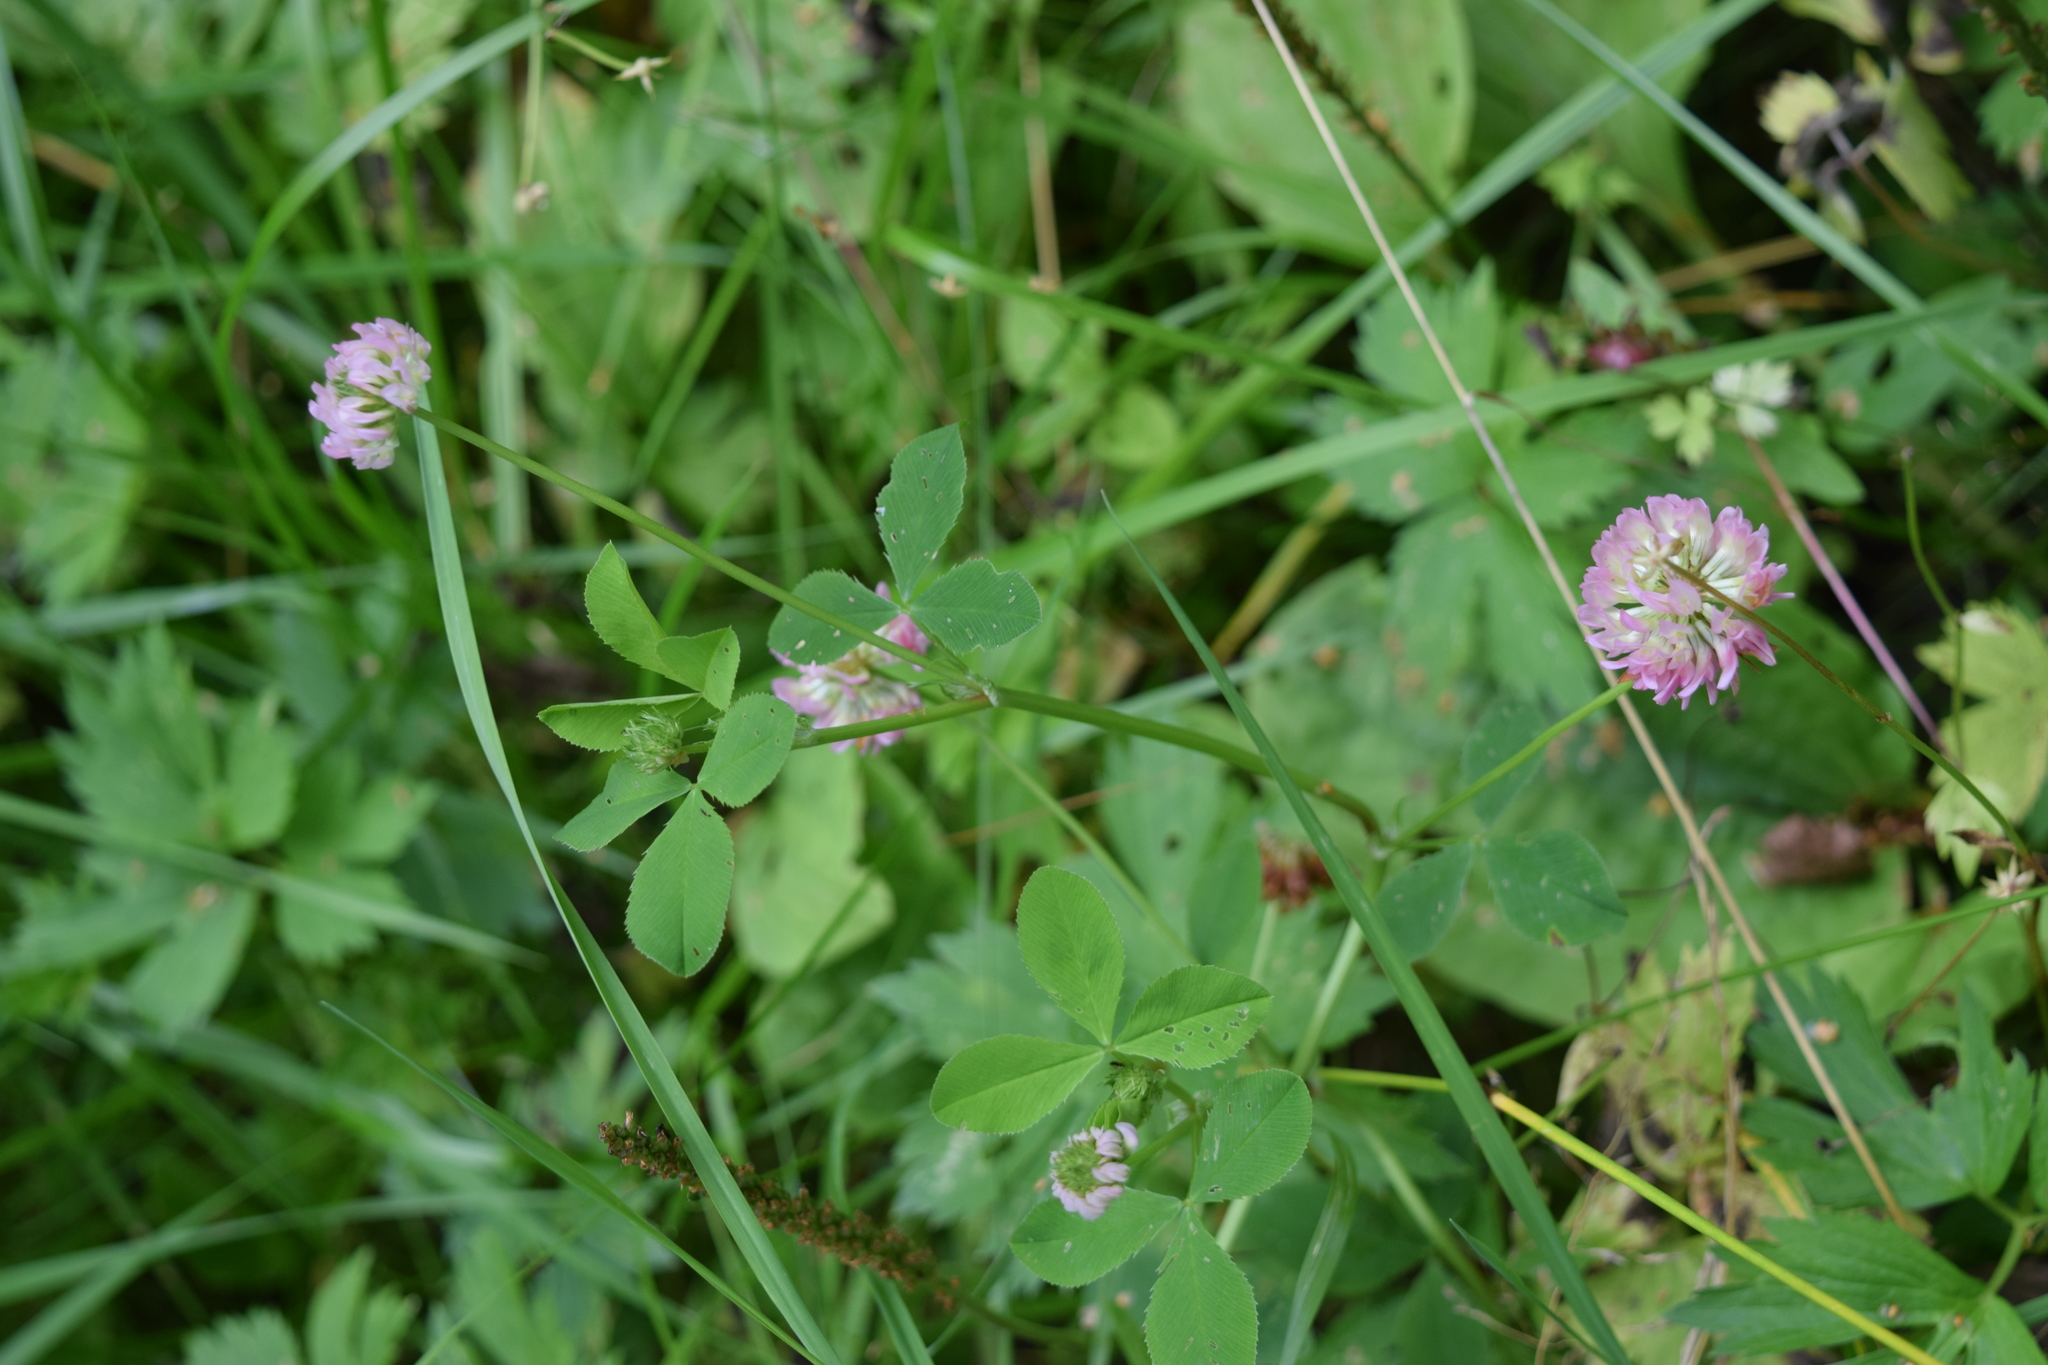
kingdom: Plantae
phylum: Tracheophyta
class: Magnoliopsida
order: Fabales
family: Fabaceae
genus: Trifolium
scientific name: Trifolium pratense
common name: Red clover
